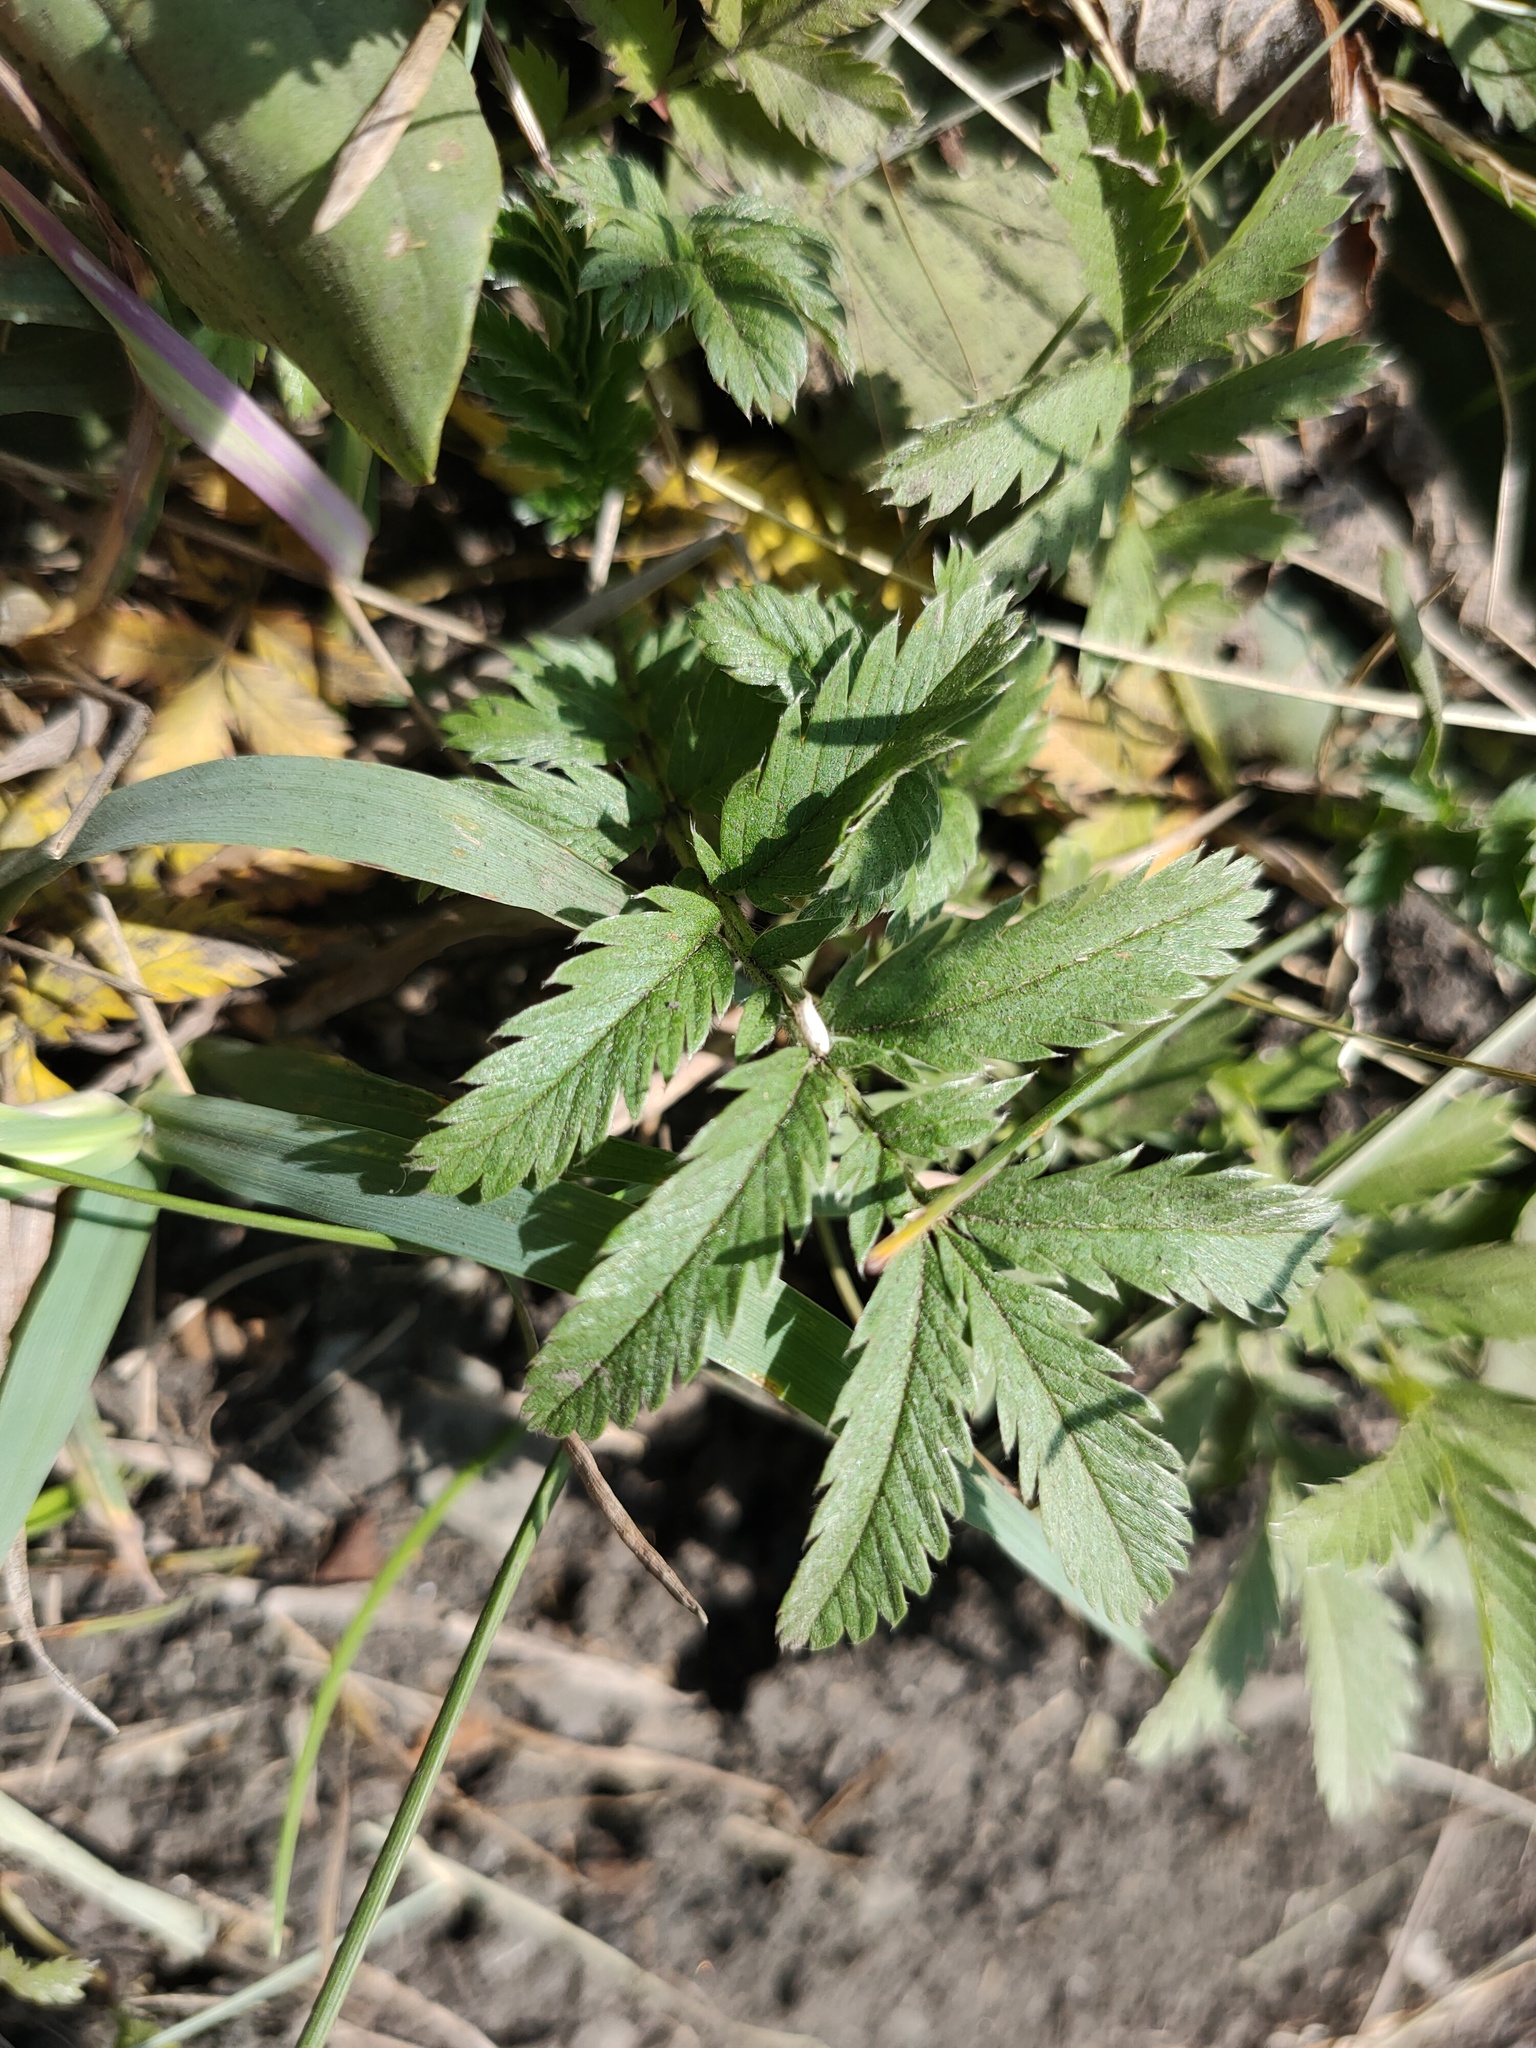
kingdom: Plantae
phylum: Tracheophyta
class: Magnoliopsida
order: Rosales
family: Rosaceae
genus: Argentina
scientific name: Argentina anserina
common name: Common silverweed
